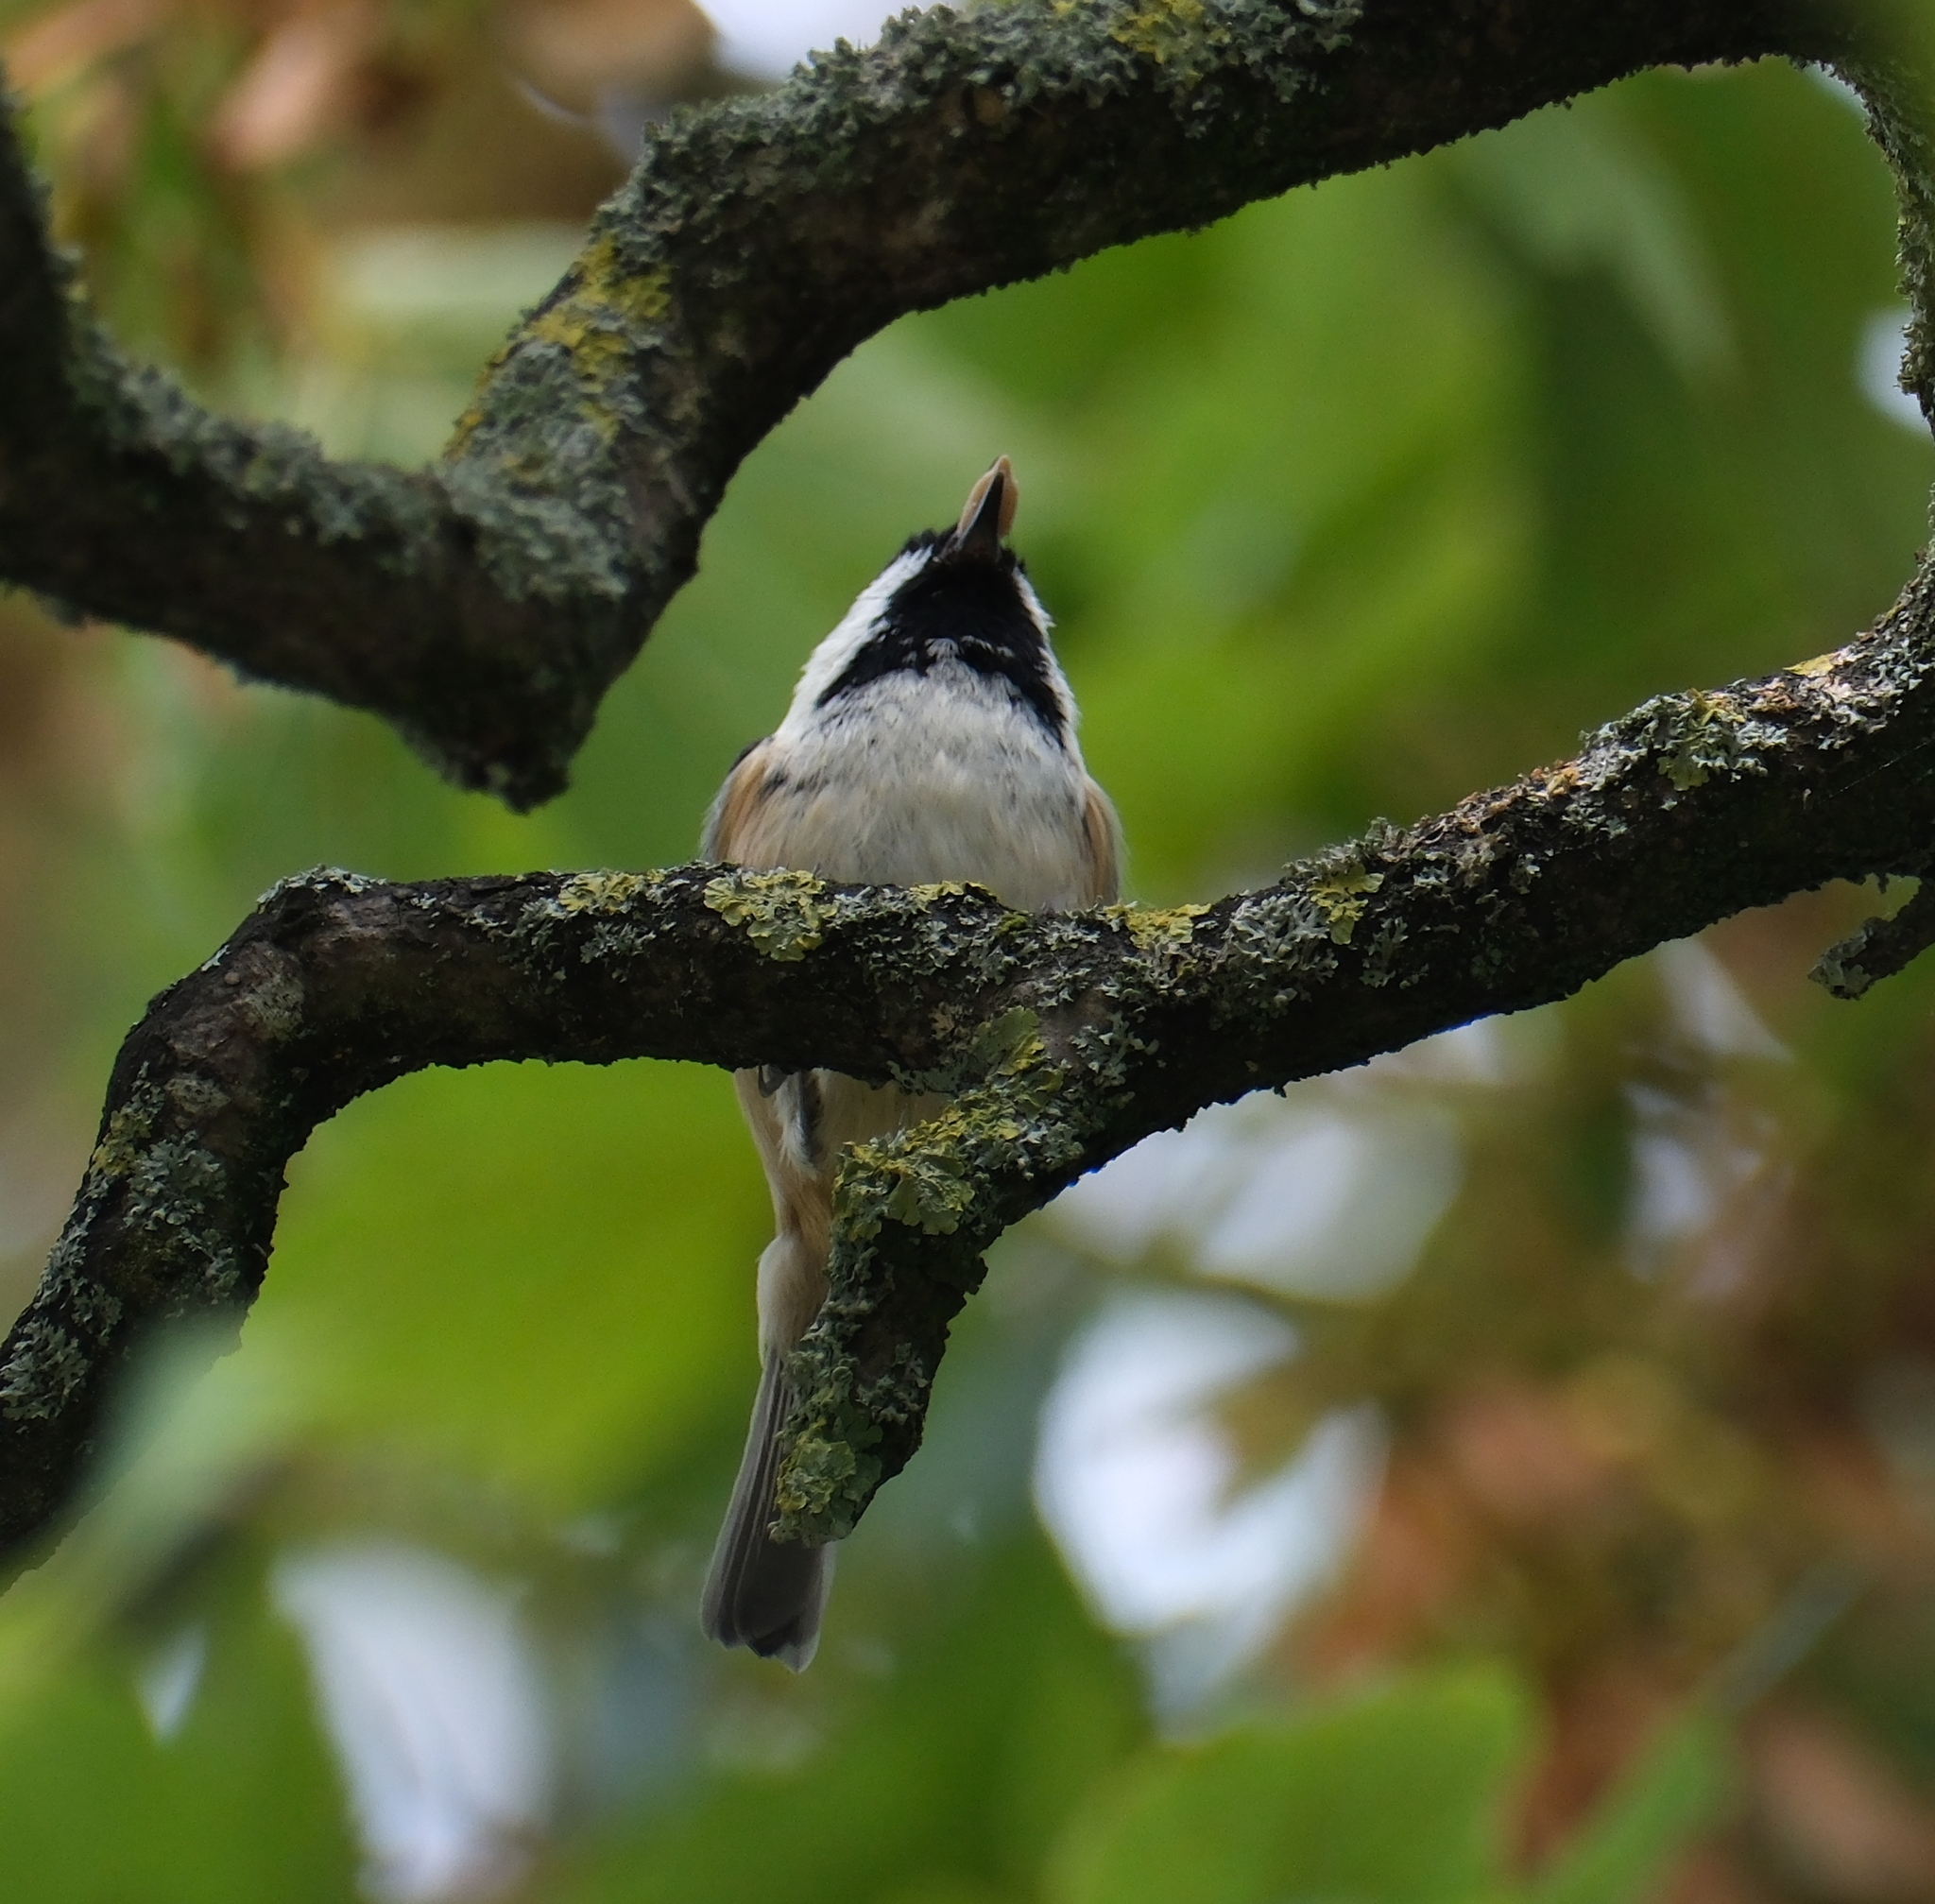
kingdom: Animalia
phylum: Chordata
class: Aves
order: Passeriformes
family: Paridae
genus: Periparus
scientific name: Periparus ater
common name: Coal tit
